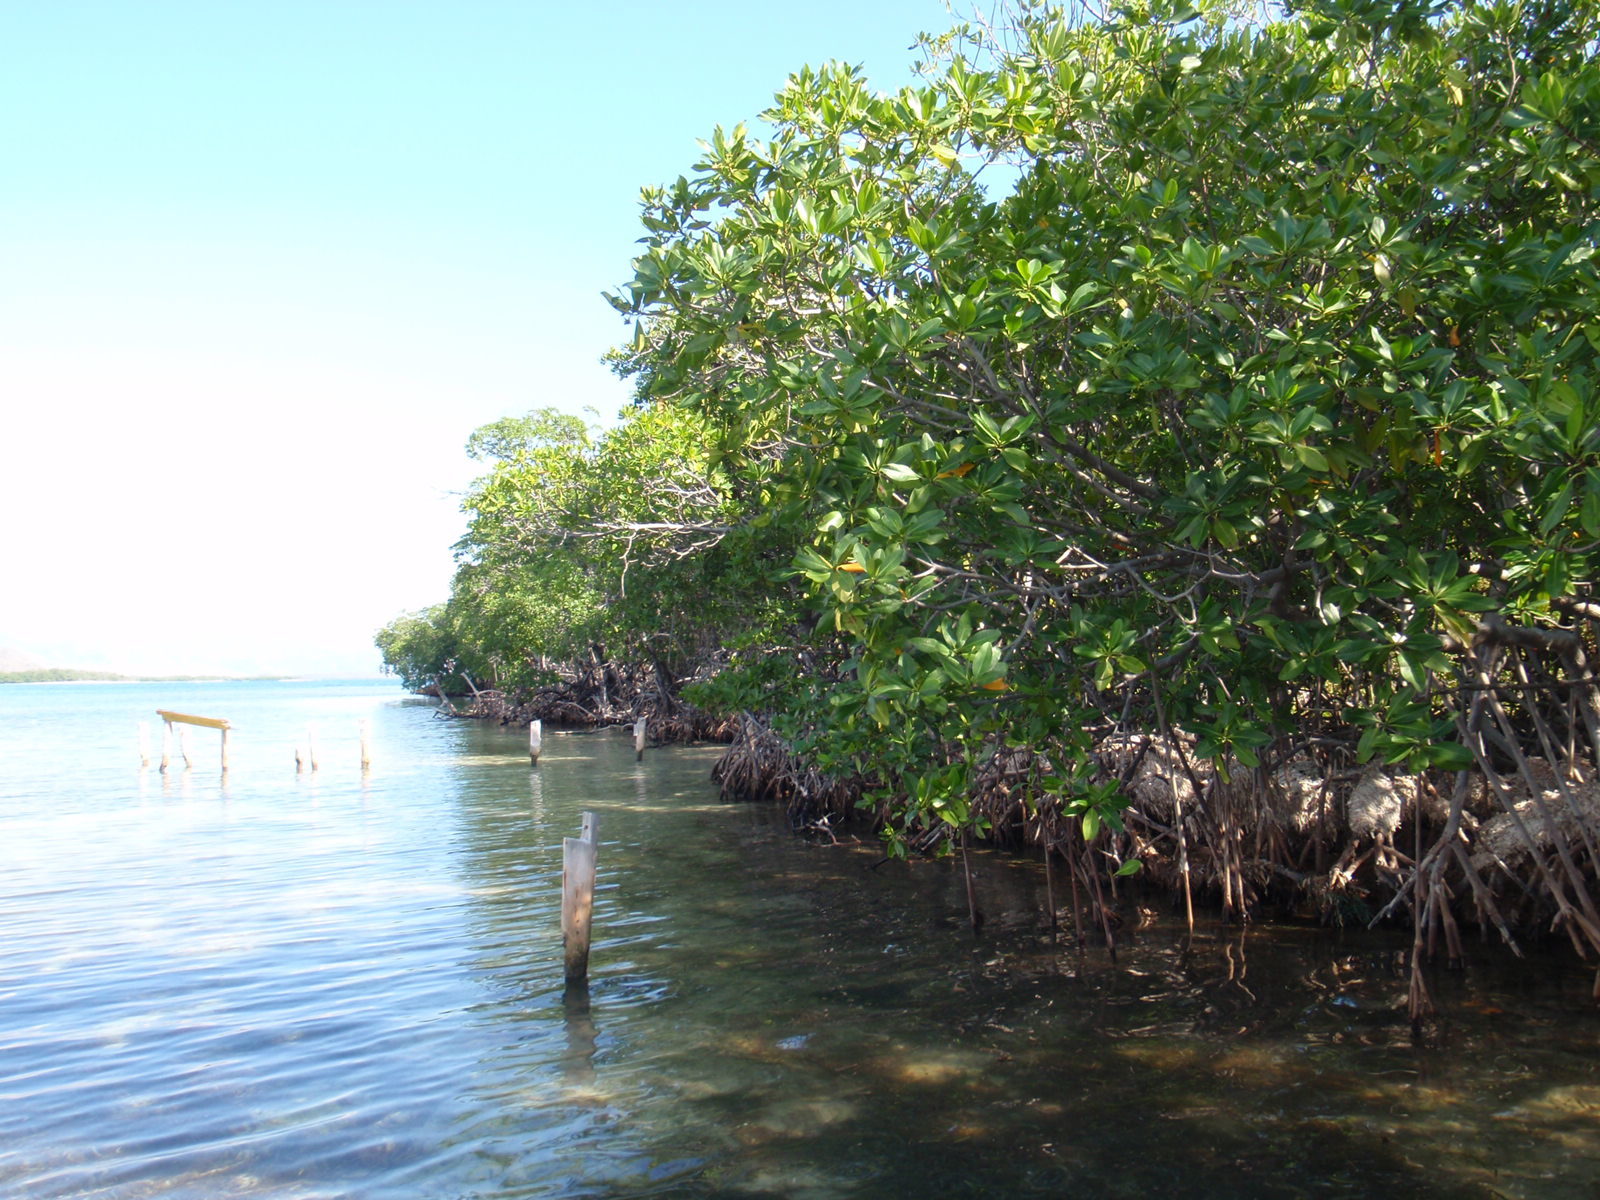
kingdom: Plantae
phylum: Tracheophyta
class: Magnoliopsida
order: Malpighiales
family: Rhizophoraceae
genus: Rhizophora
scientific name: Rhizophora mangle
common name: Red mangrove
